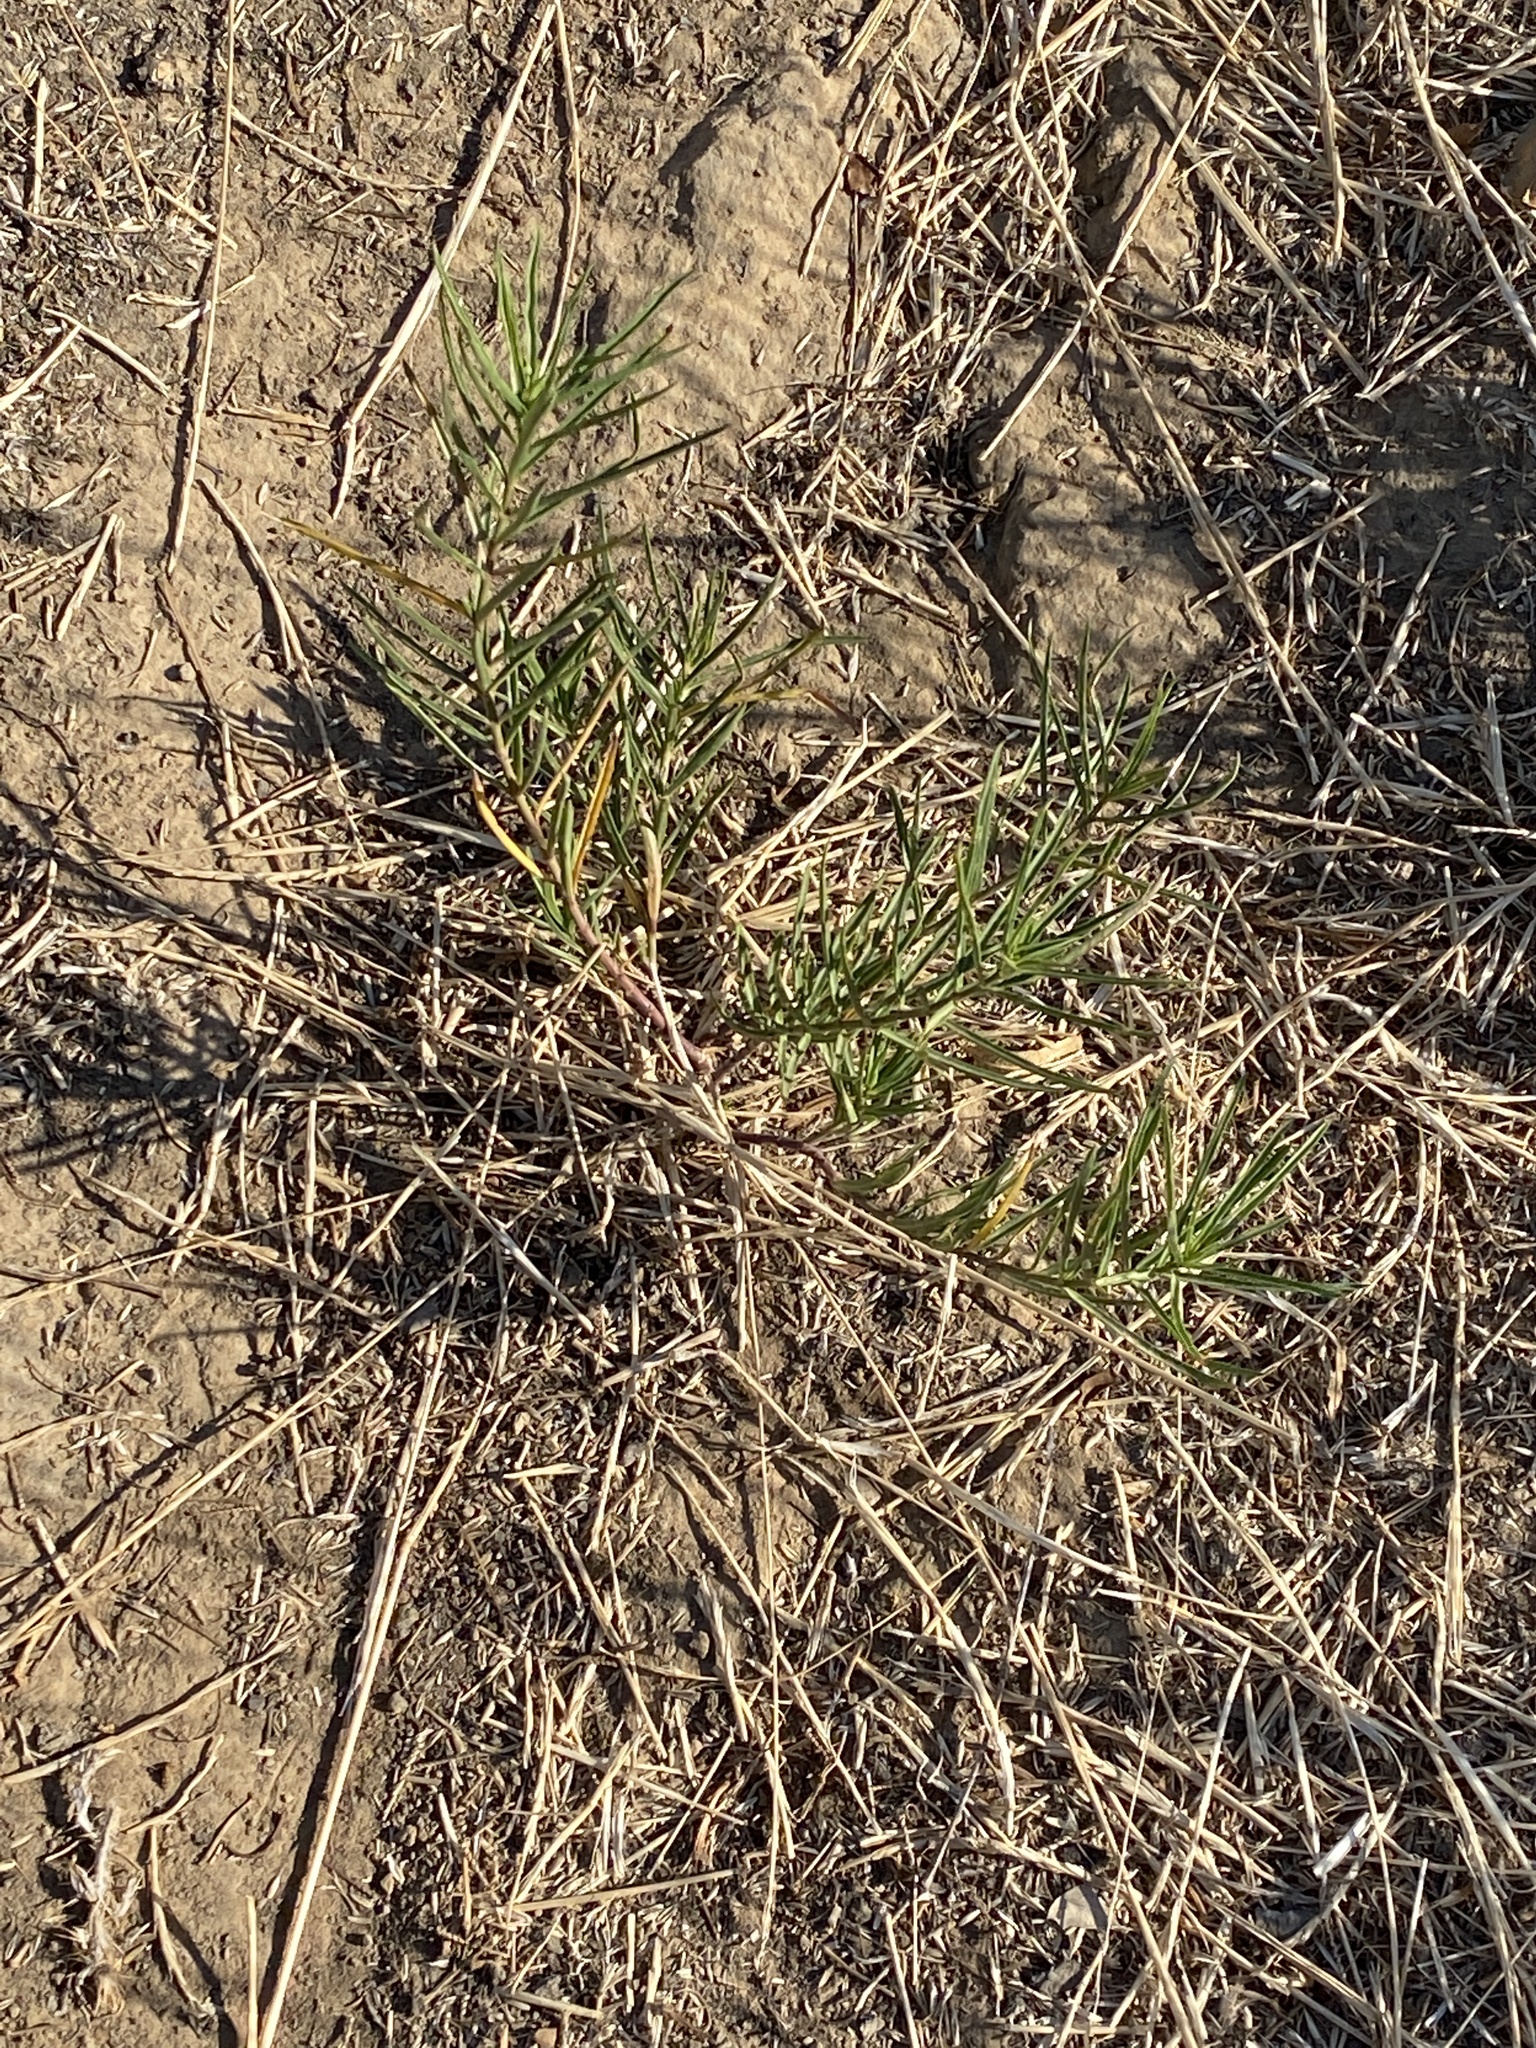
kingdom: Plantae
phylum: Tracheophyta
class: Magnoliopsida
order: Gentianales
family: Apocynaceae
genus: Asclepias
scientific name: Asclepias fascicularis
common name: Mexican milkweed
